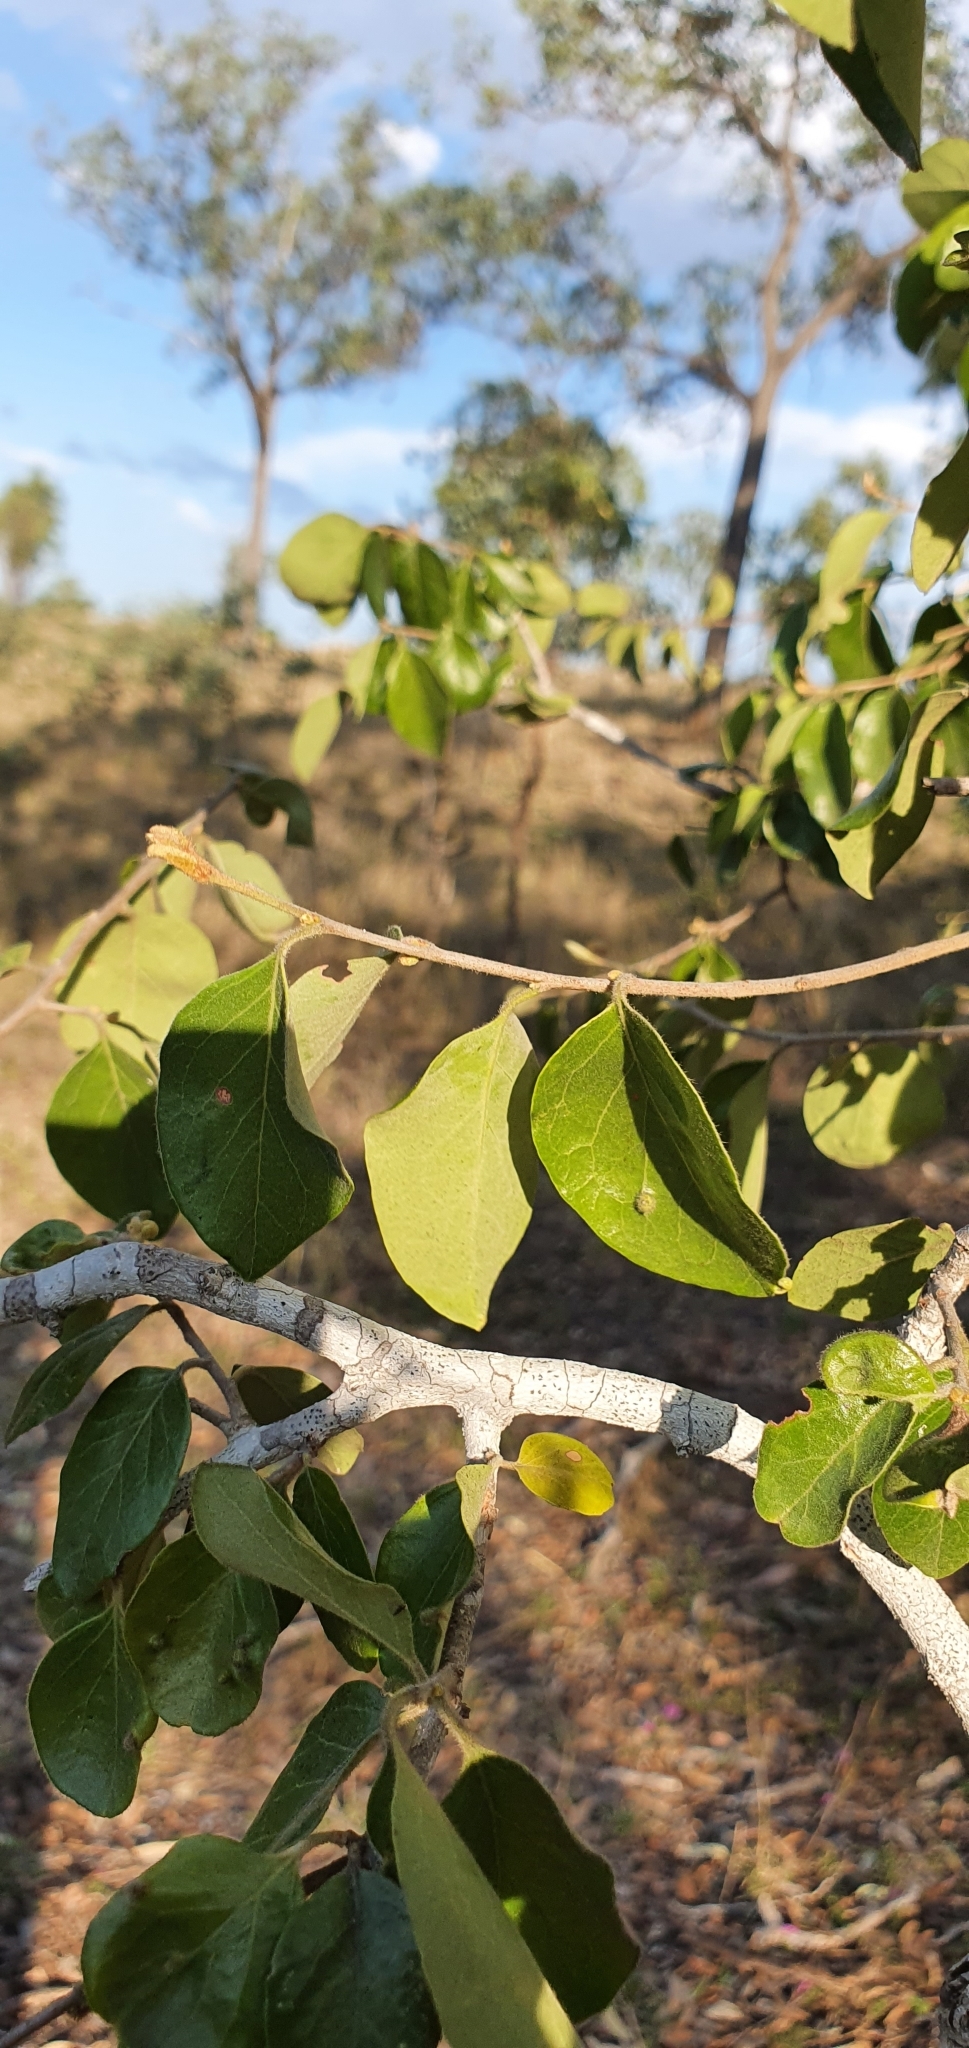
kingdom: Plantae
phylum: Tracheophyta
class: Magnoliopsida
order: Malpighiales
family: Picrodendraceae
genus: Petalostigma
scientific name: Petalostigma pubescens
